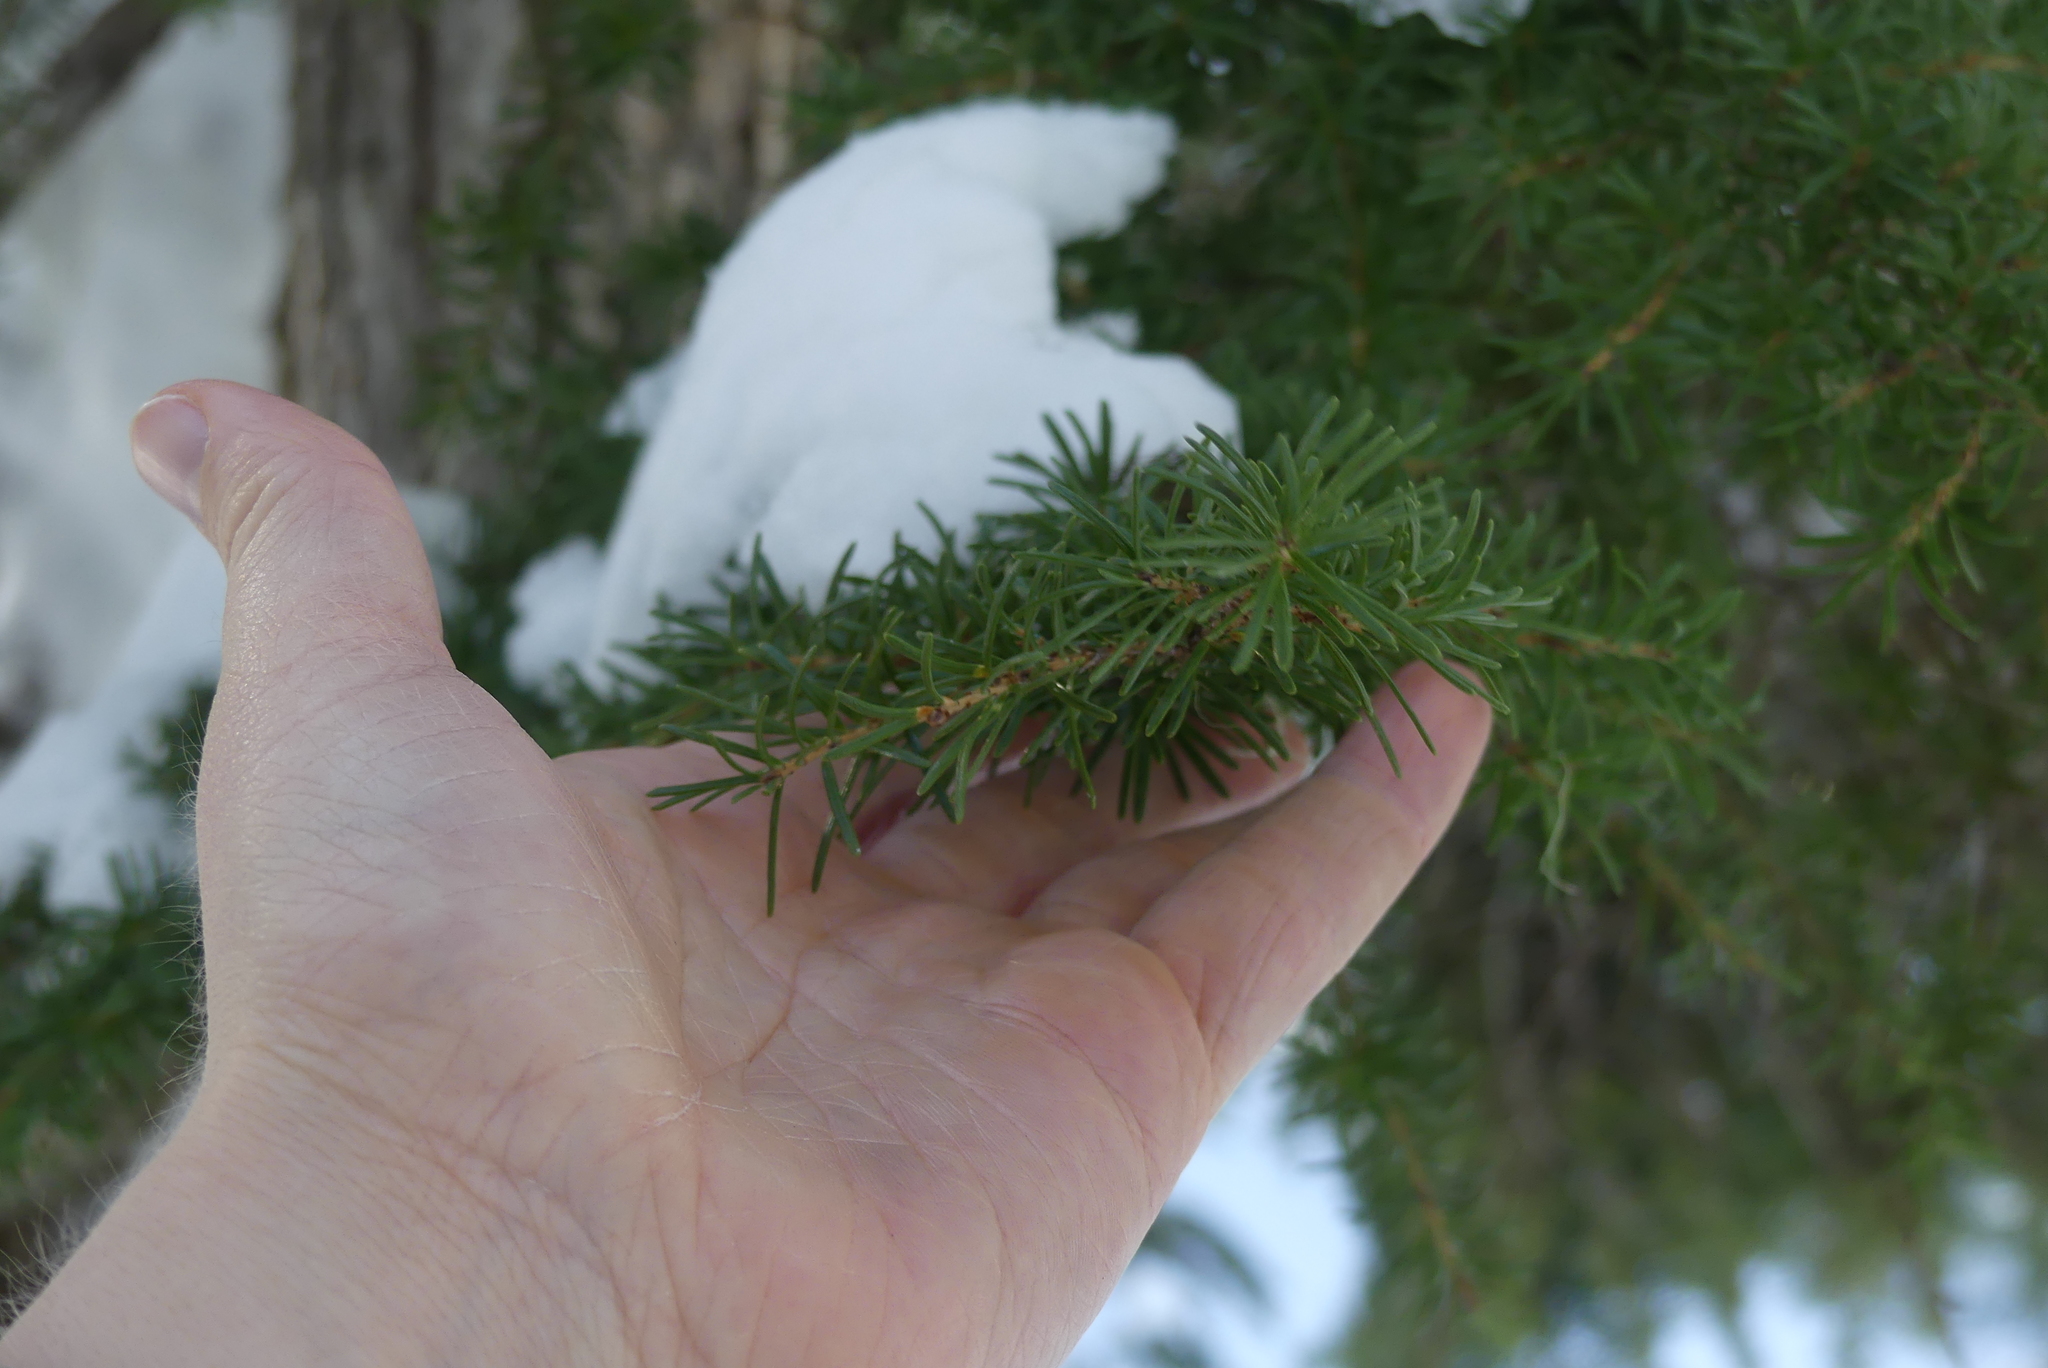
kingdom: Plantae
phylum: Tracheophyta
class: Pinopsida
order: Pinales
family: Pinaceae
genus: Tsuga
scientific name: Tsuga mertensiana
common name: Mountain hemlock
